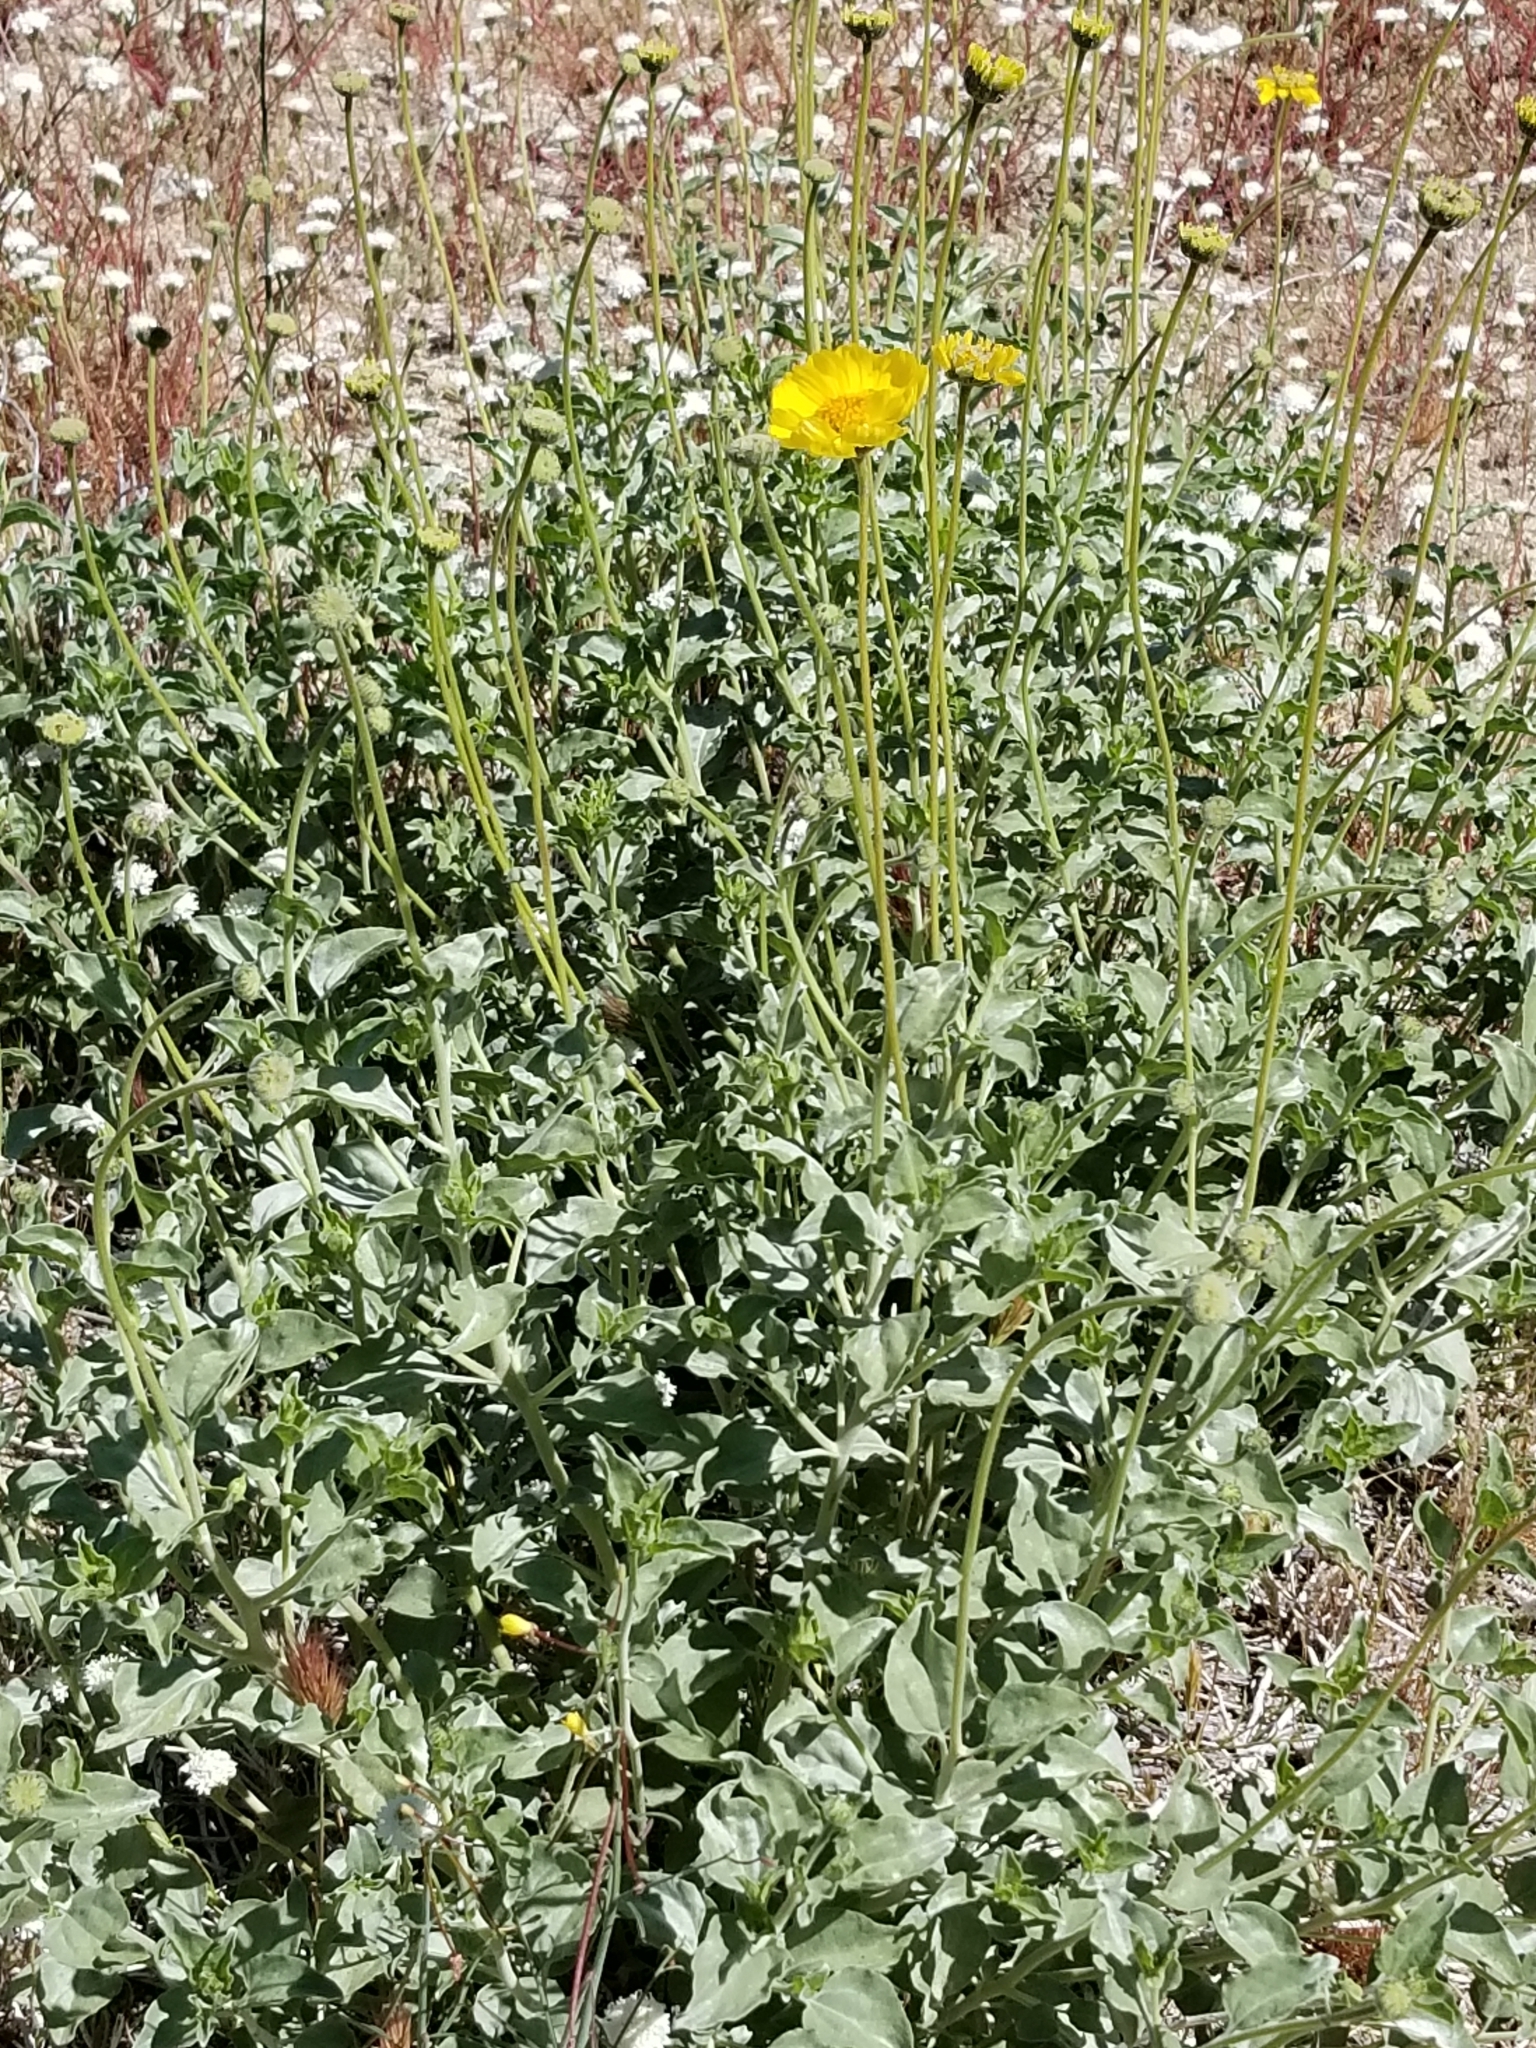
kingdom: Plantae
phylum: Tracheophyta
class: Magnoliopsida
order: Asterales
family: Asteraceae
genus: Encelia
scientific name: Encelia actoni
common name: Acton encelia
